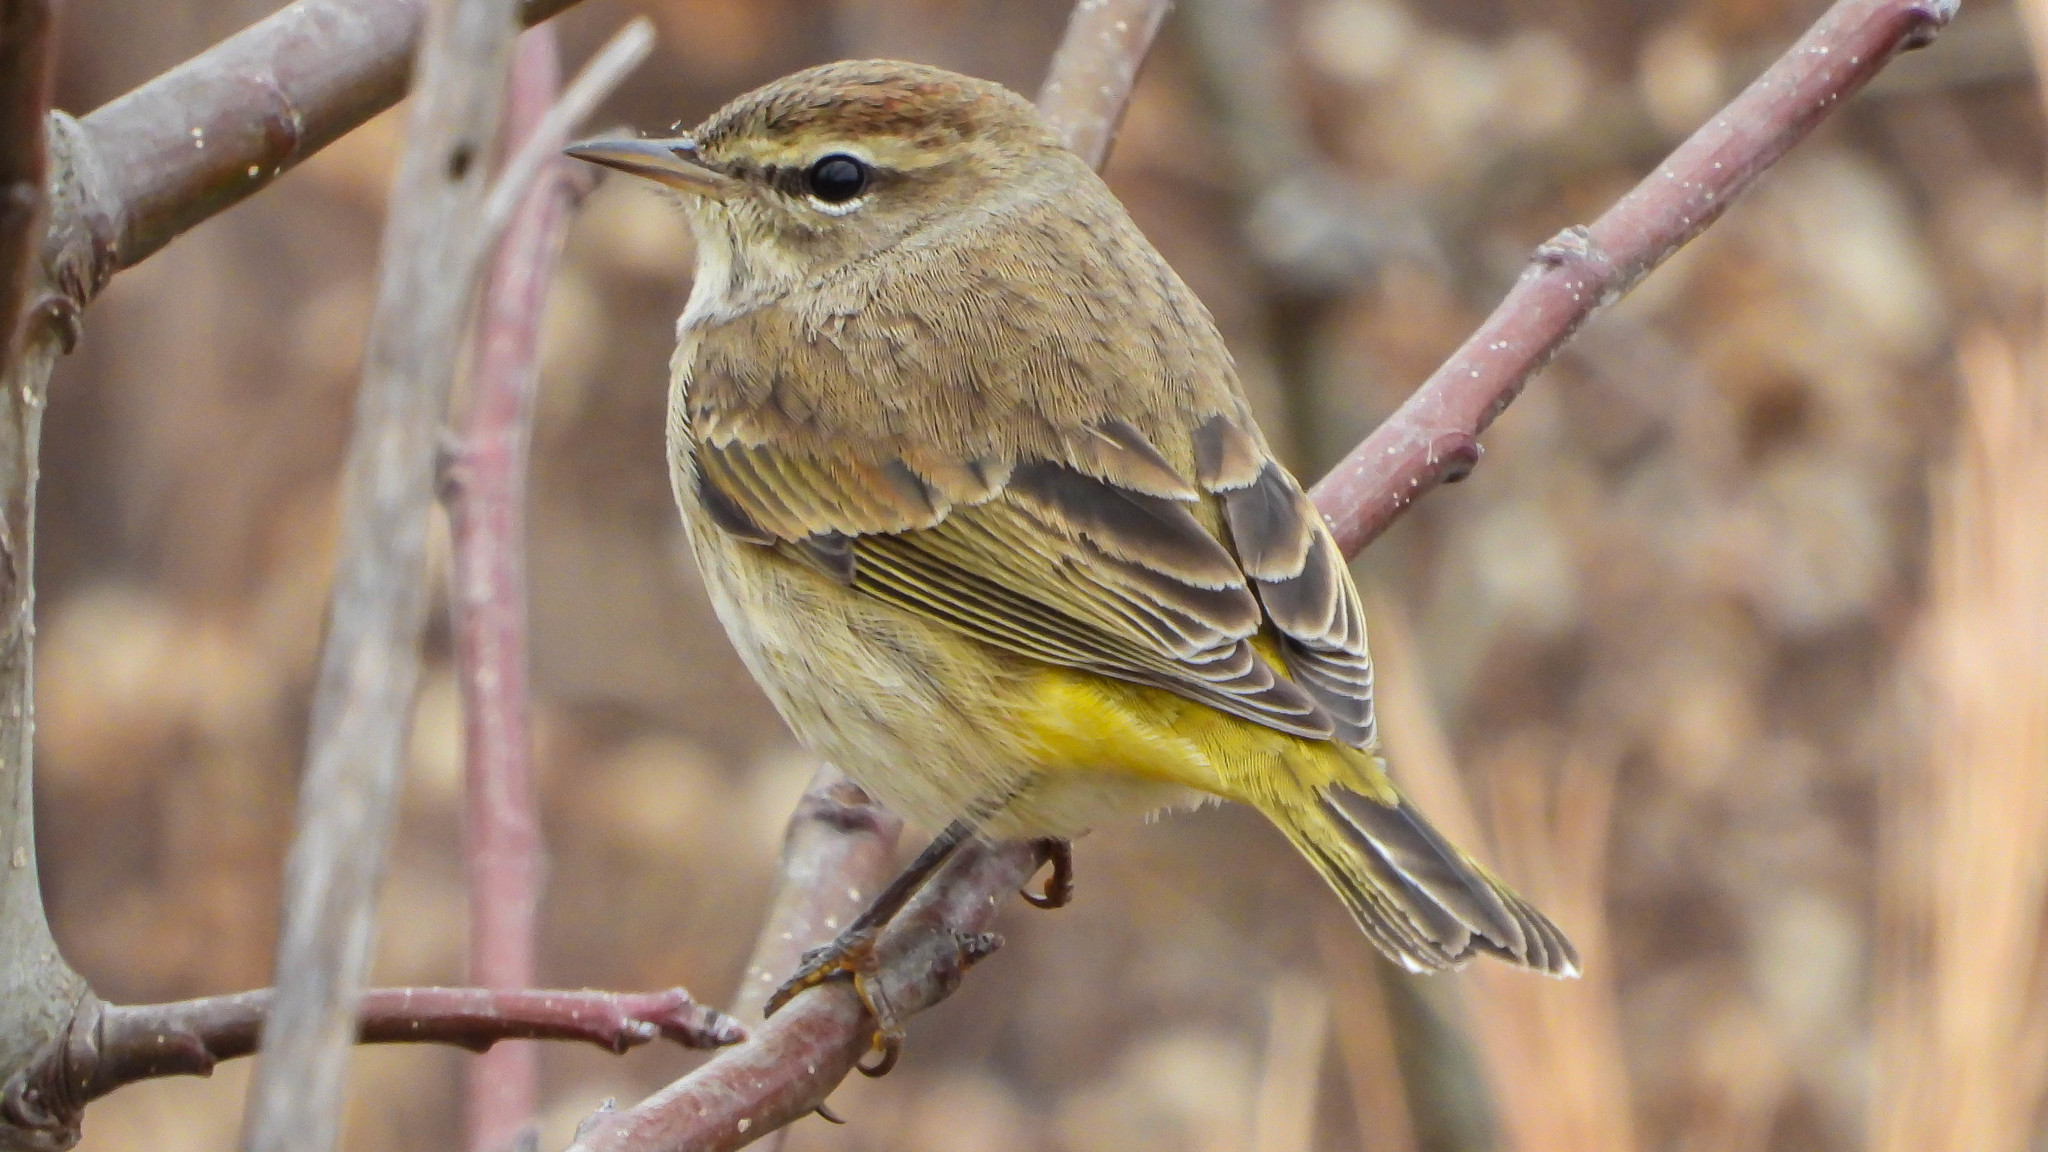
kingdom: Animalia
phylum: Chordata
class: Aves
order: Passeriformes
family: Parulidae
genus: Setophaga
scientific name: Setophaga palmarum
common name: Palm warbler
